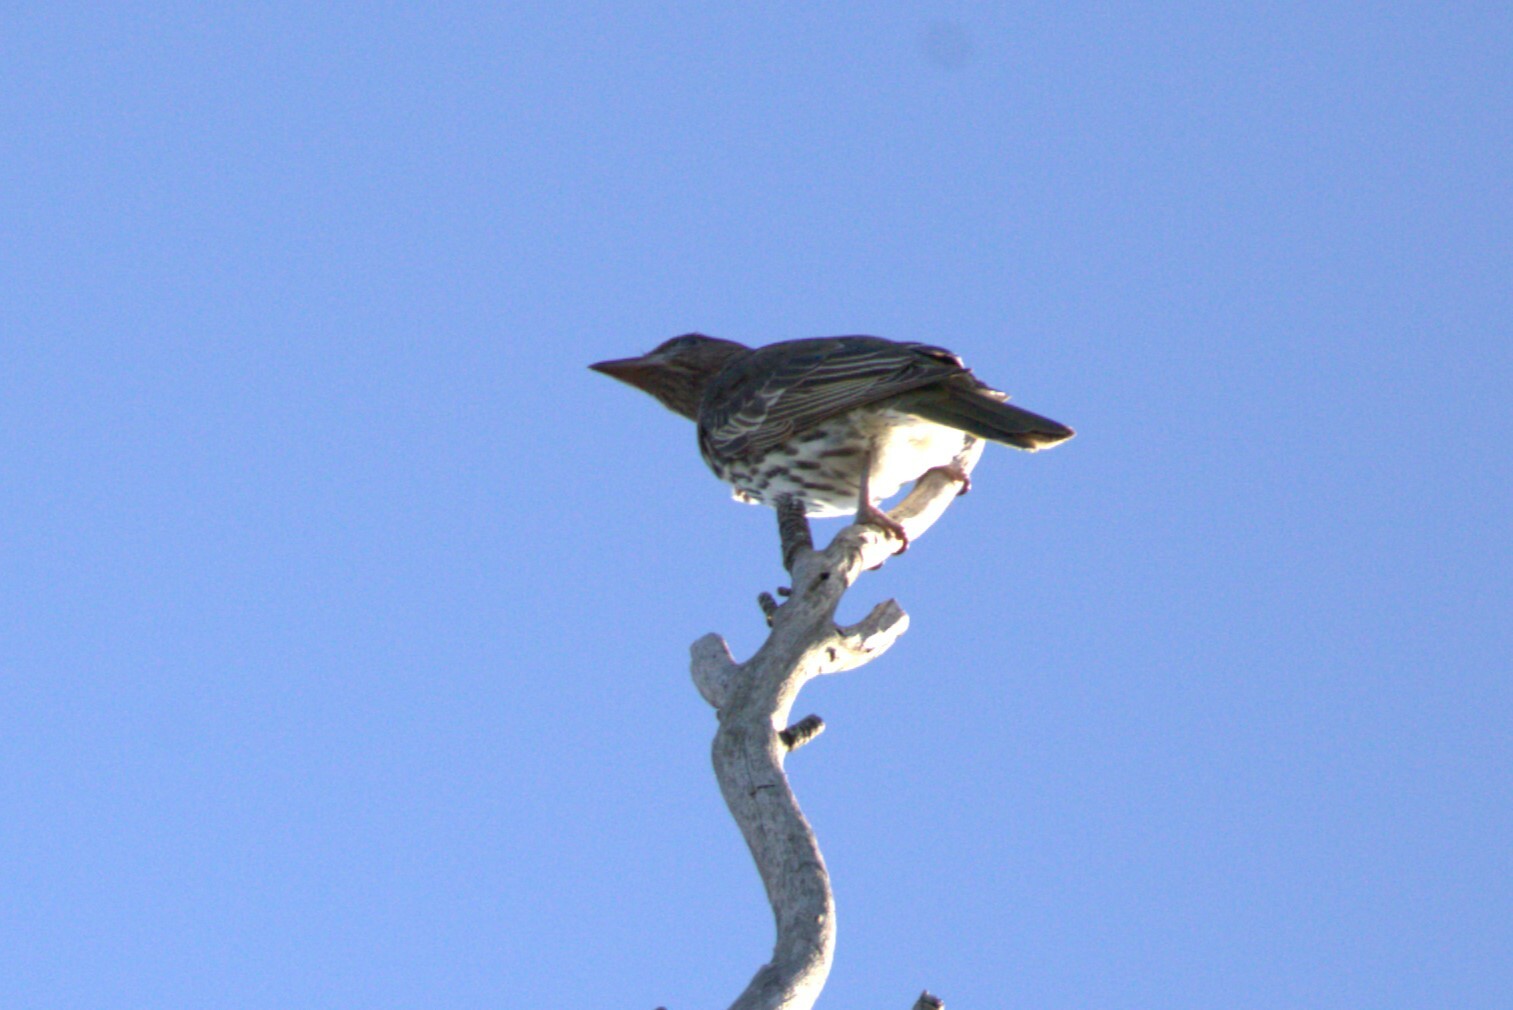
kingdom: Animalia
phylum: Chordata
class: Aves
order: Passeriformes
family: Oriolidae
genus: Sphecotheres
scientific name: Sphecotheres vieilloti
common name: Australasian figbird
